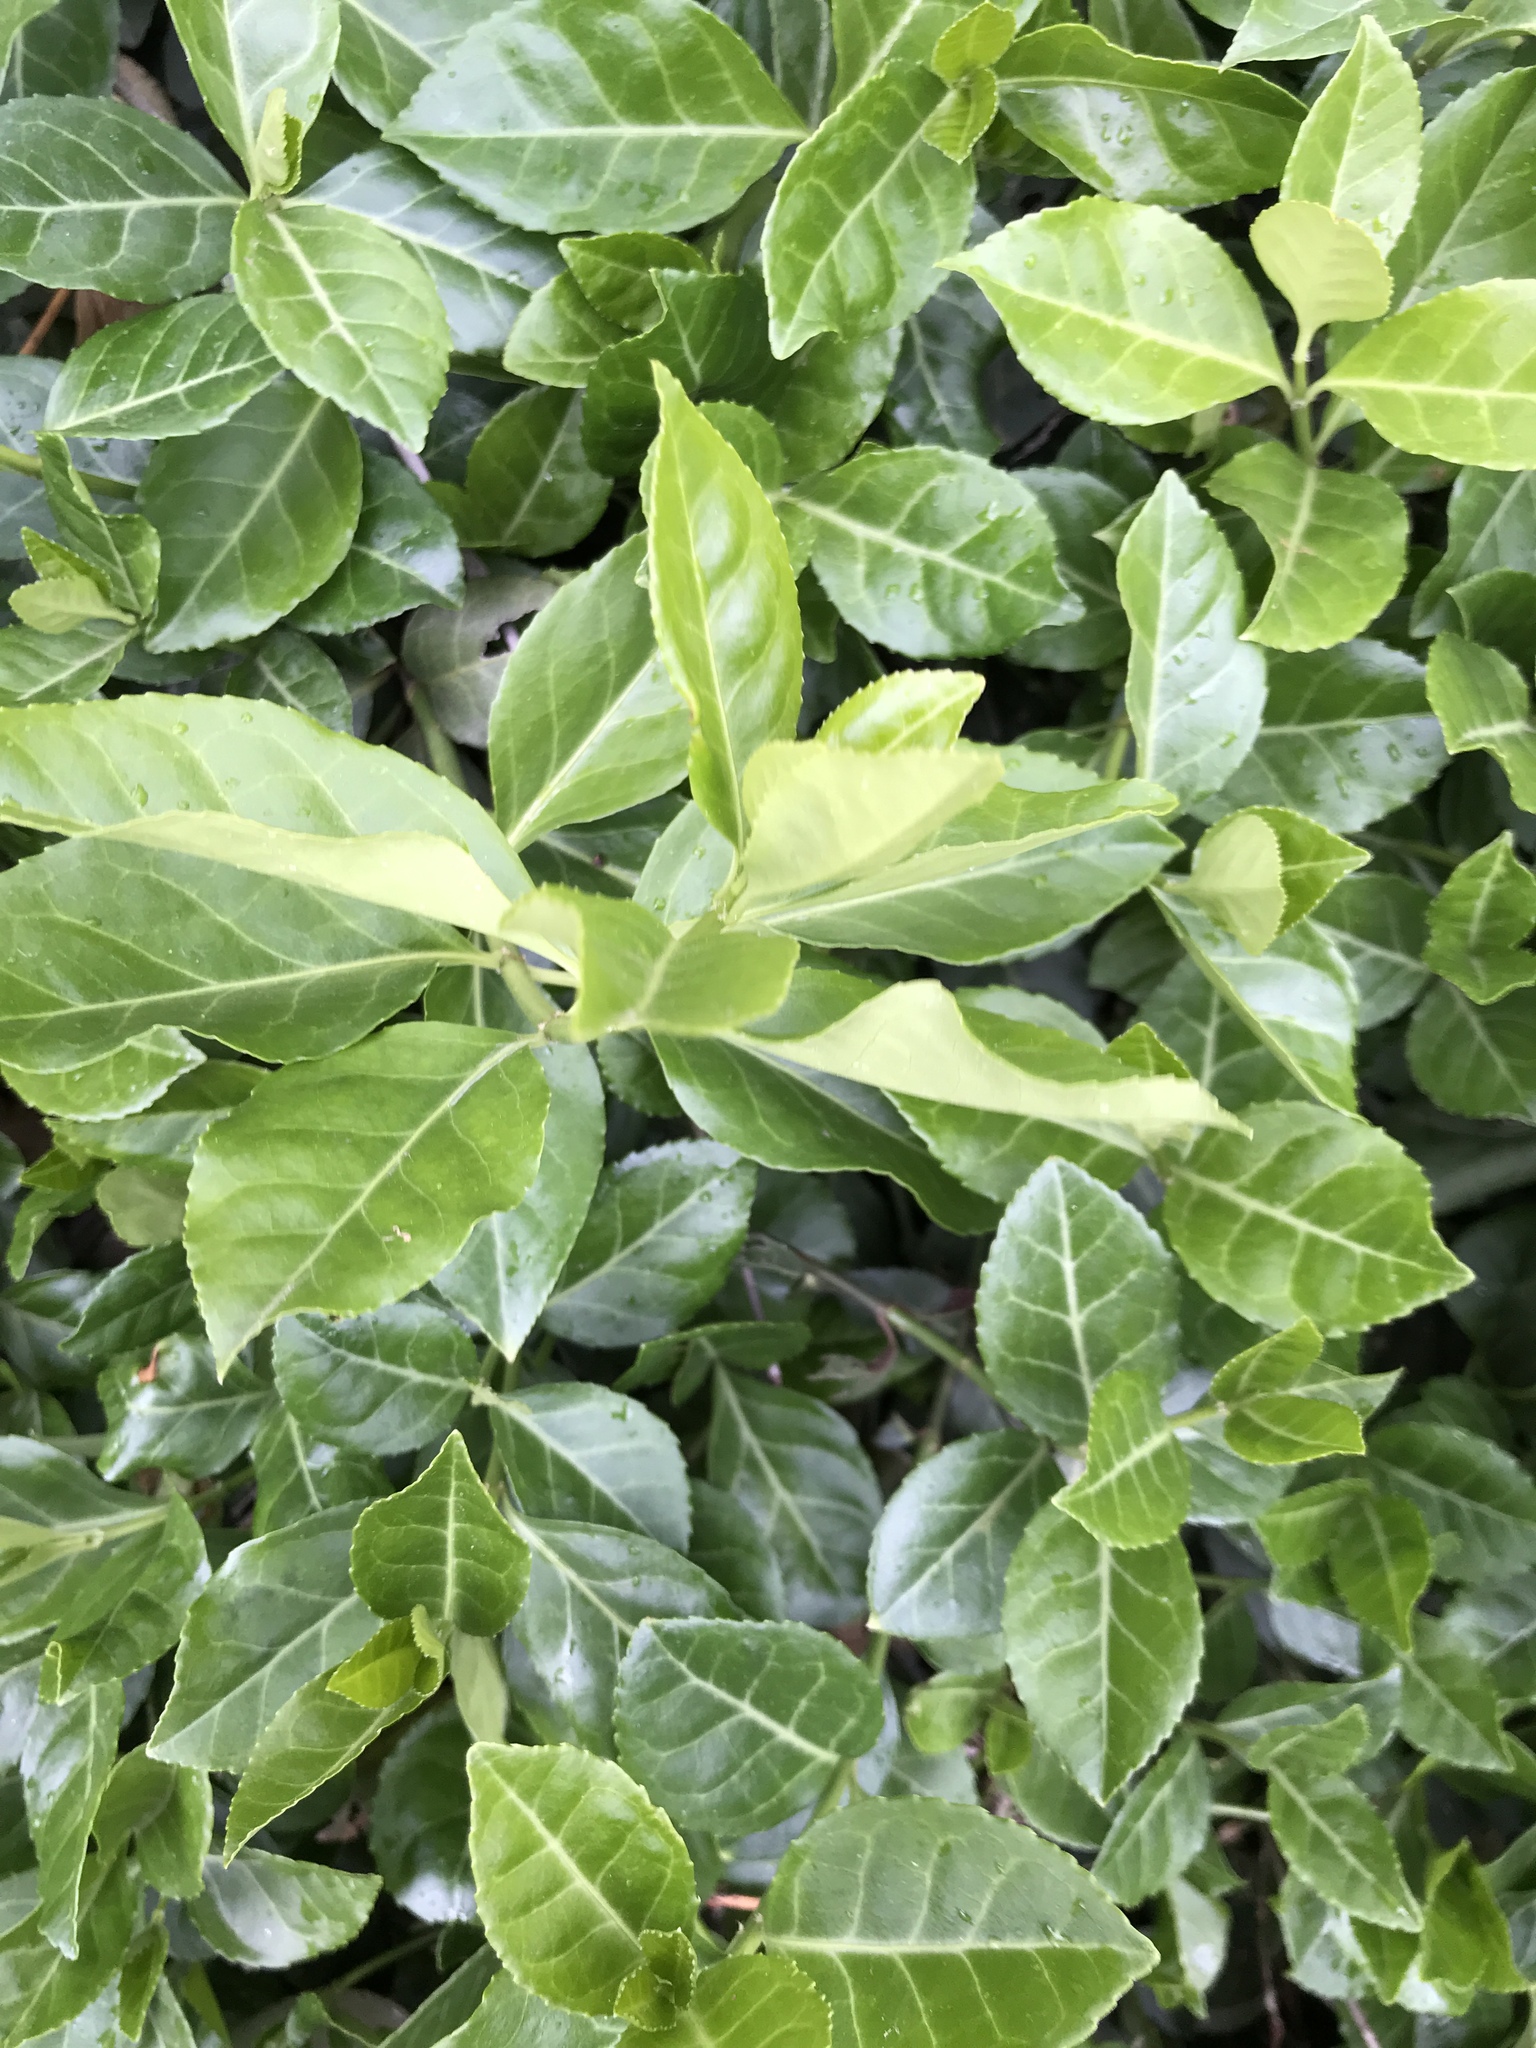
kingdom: Plantae
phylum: Tracheophyta
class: Magnoliopsida
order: Celastrales
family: Celastraceae
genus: Euonymus
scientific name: Euonymus fortunei
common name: Climbing euonymus
